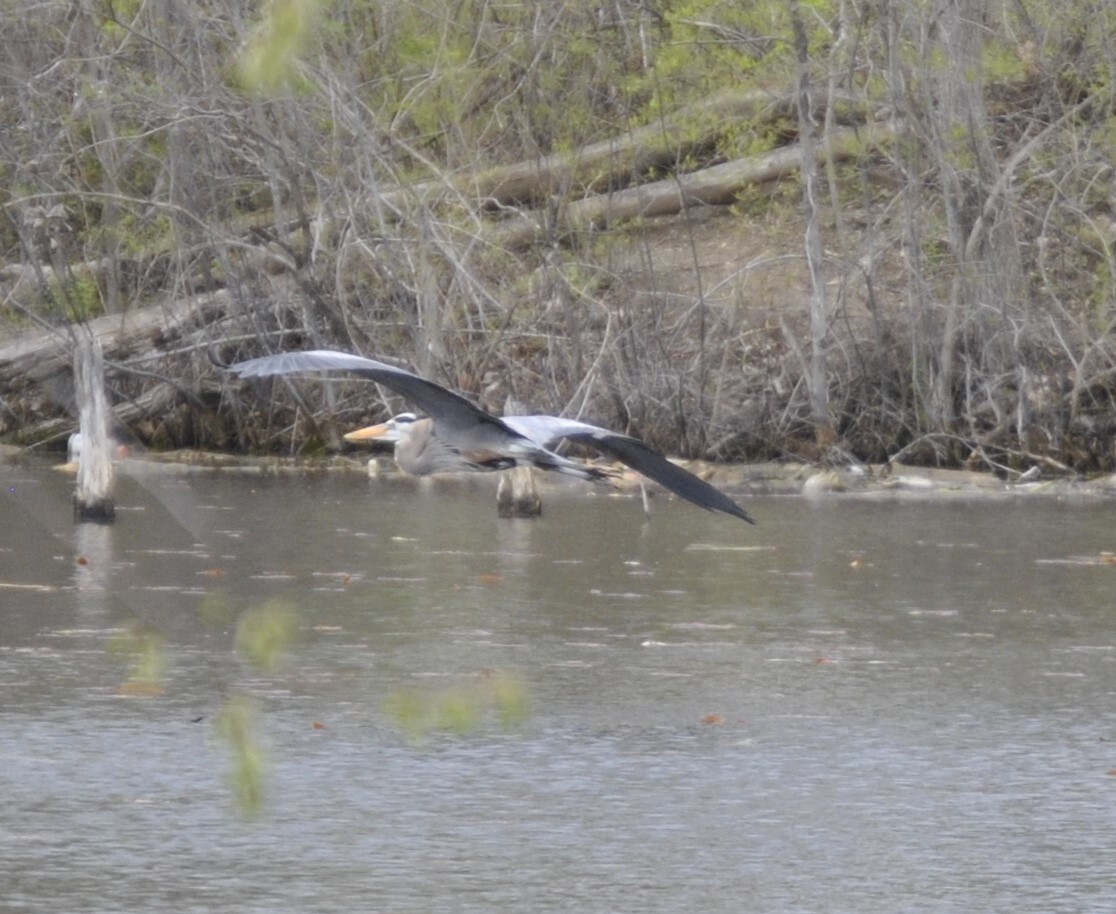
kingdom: Animalia
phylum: Chordata
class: Aves
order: Pelecaniformes
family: Ardeidae
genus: Ardea
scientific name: Ardea herodias
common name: Great blue heron
